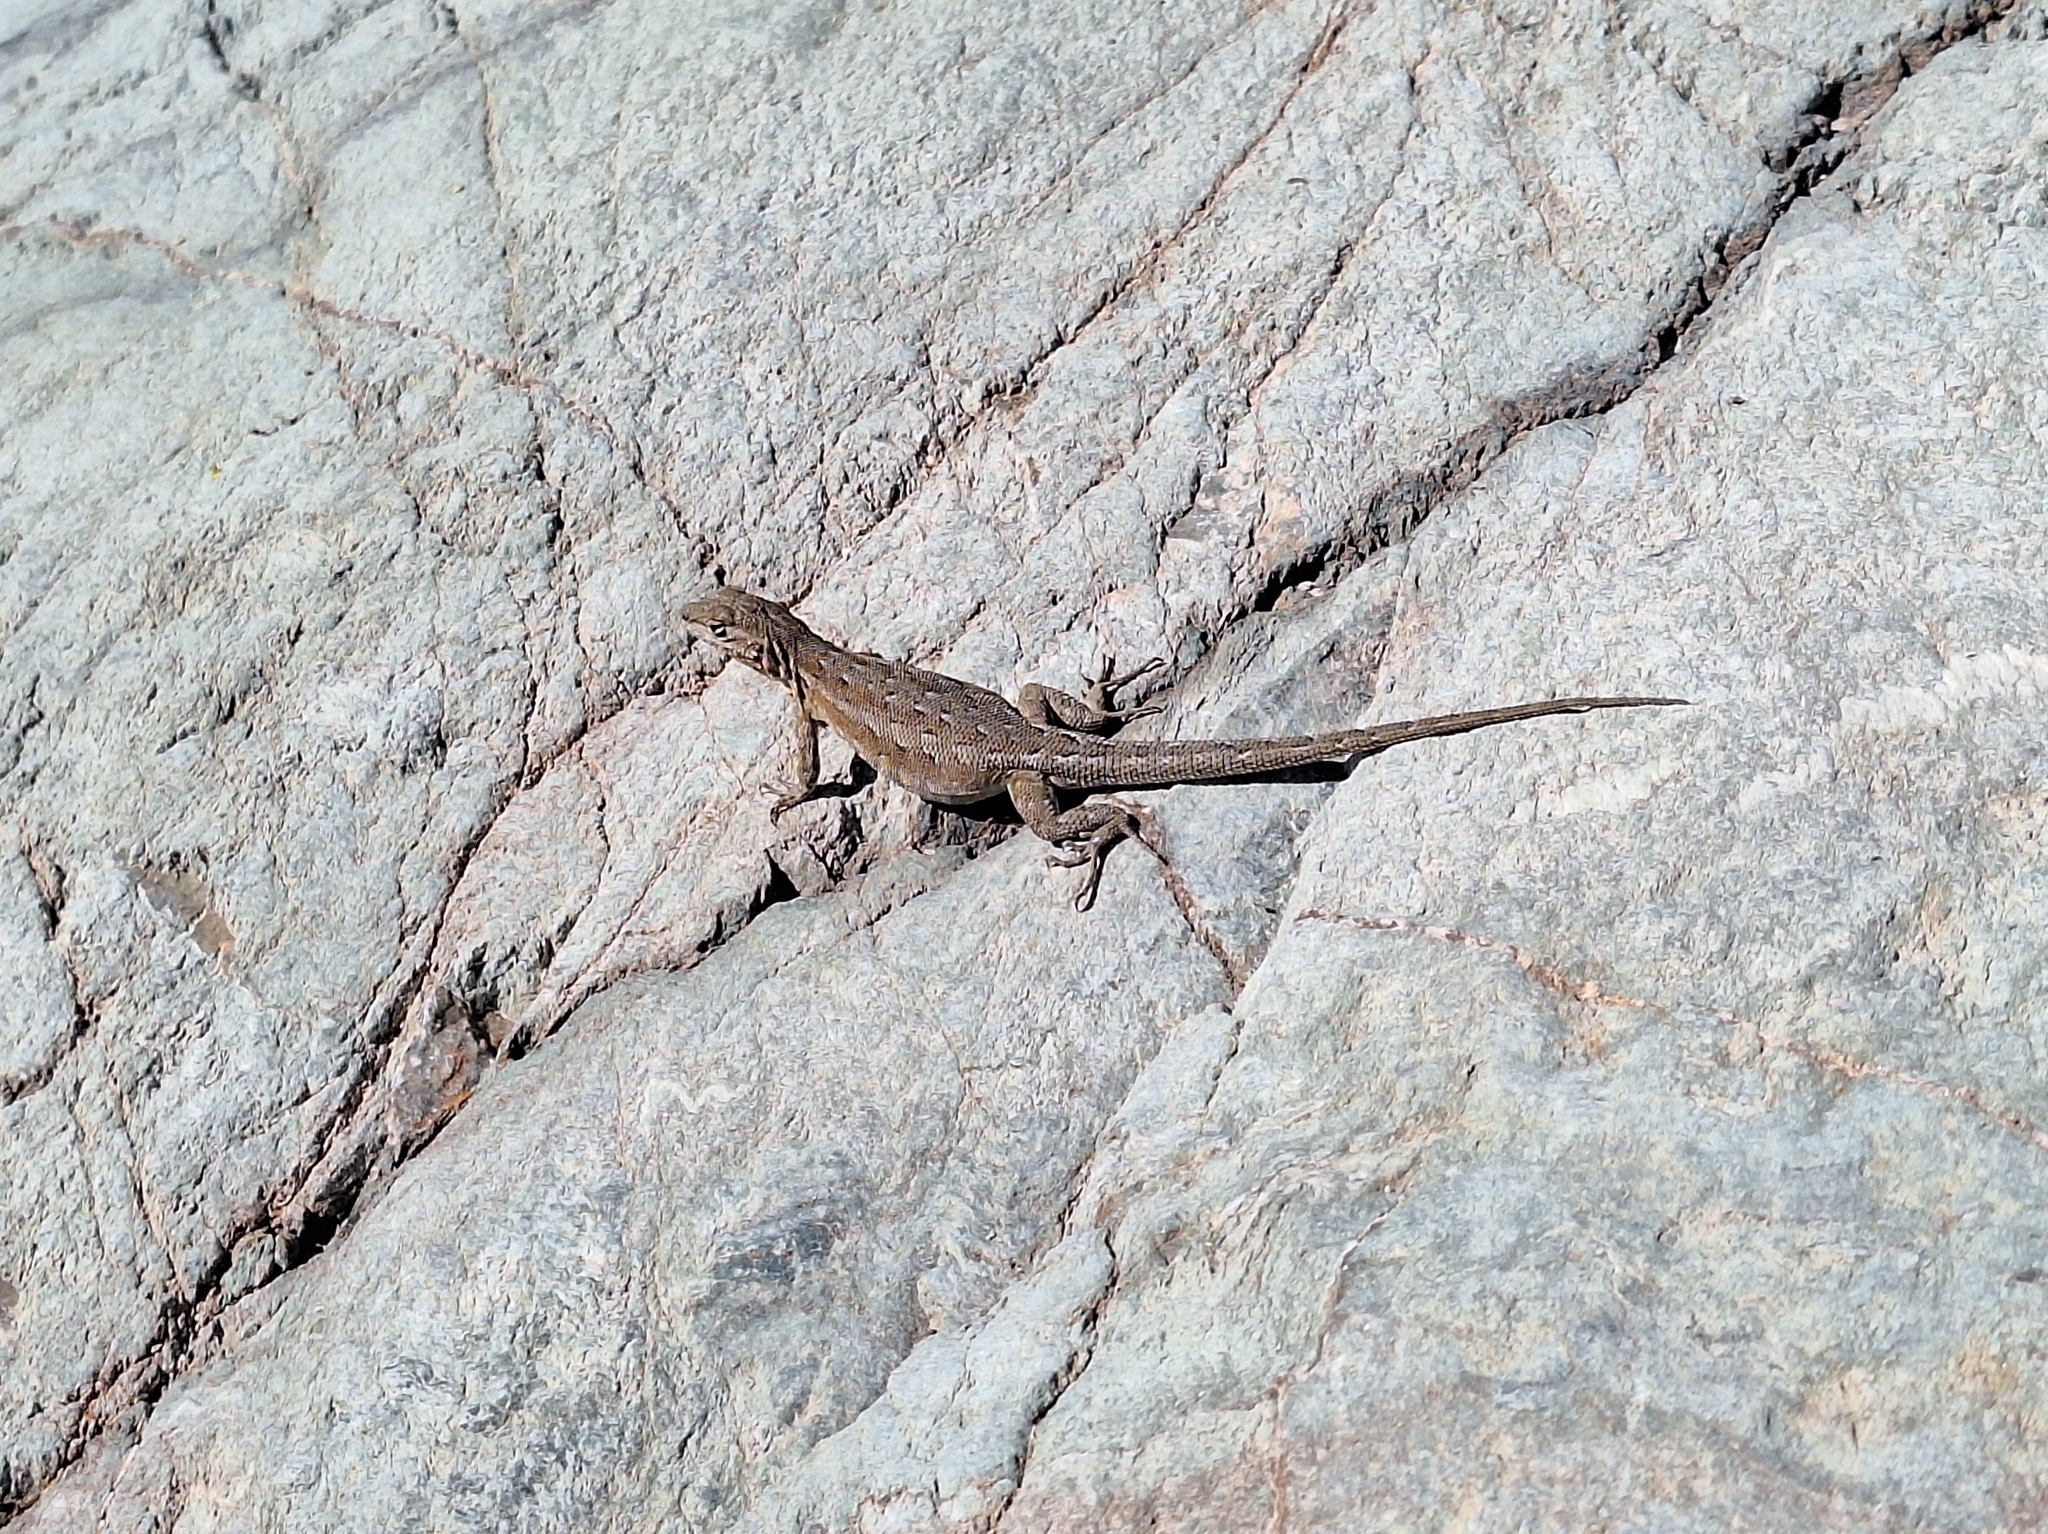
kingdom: Animalia
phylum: Chordata
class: Squamata
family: Phrynosomatidae
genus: Urosaurus
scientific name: Urosaurus ornatus
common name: Ornate tree lizard
